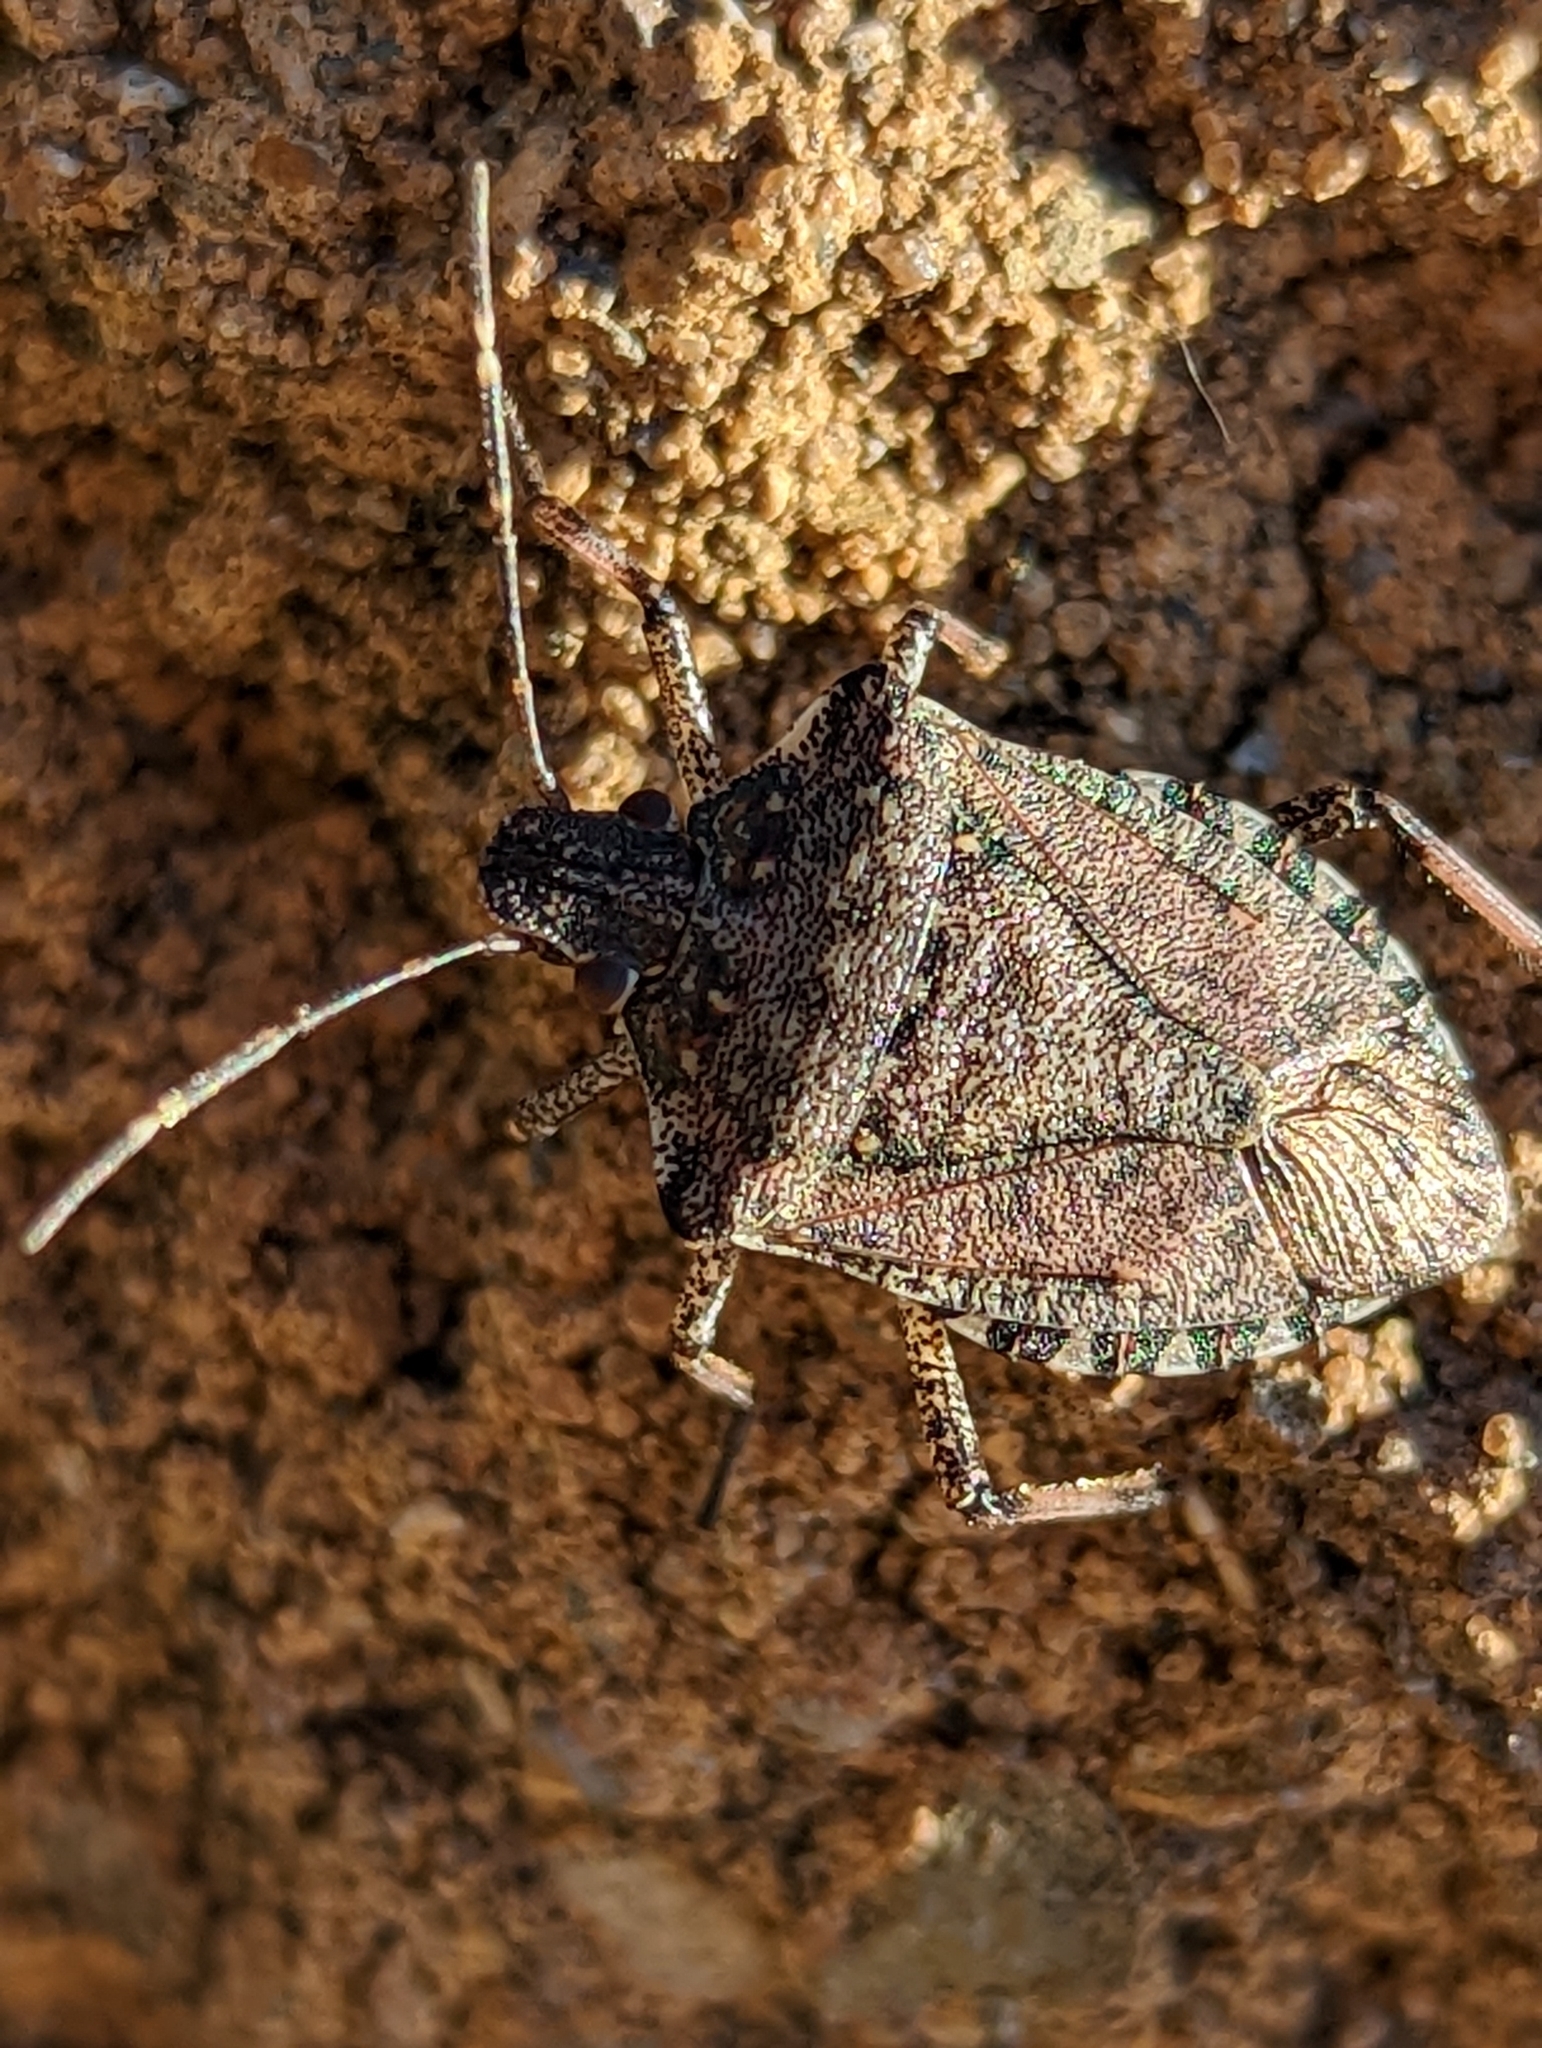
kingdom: Animalia
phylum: Arthropoda
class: Insecta
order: Hemiptera
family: Pentatomidae
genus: Halyomorpha
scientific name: Halyomorpha halys
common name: Brown marmorated stink bug
